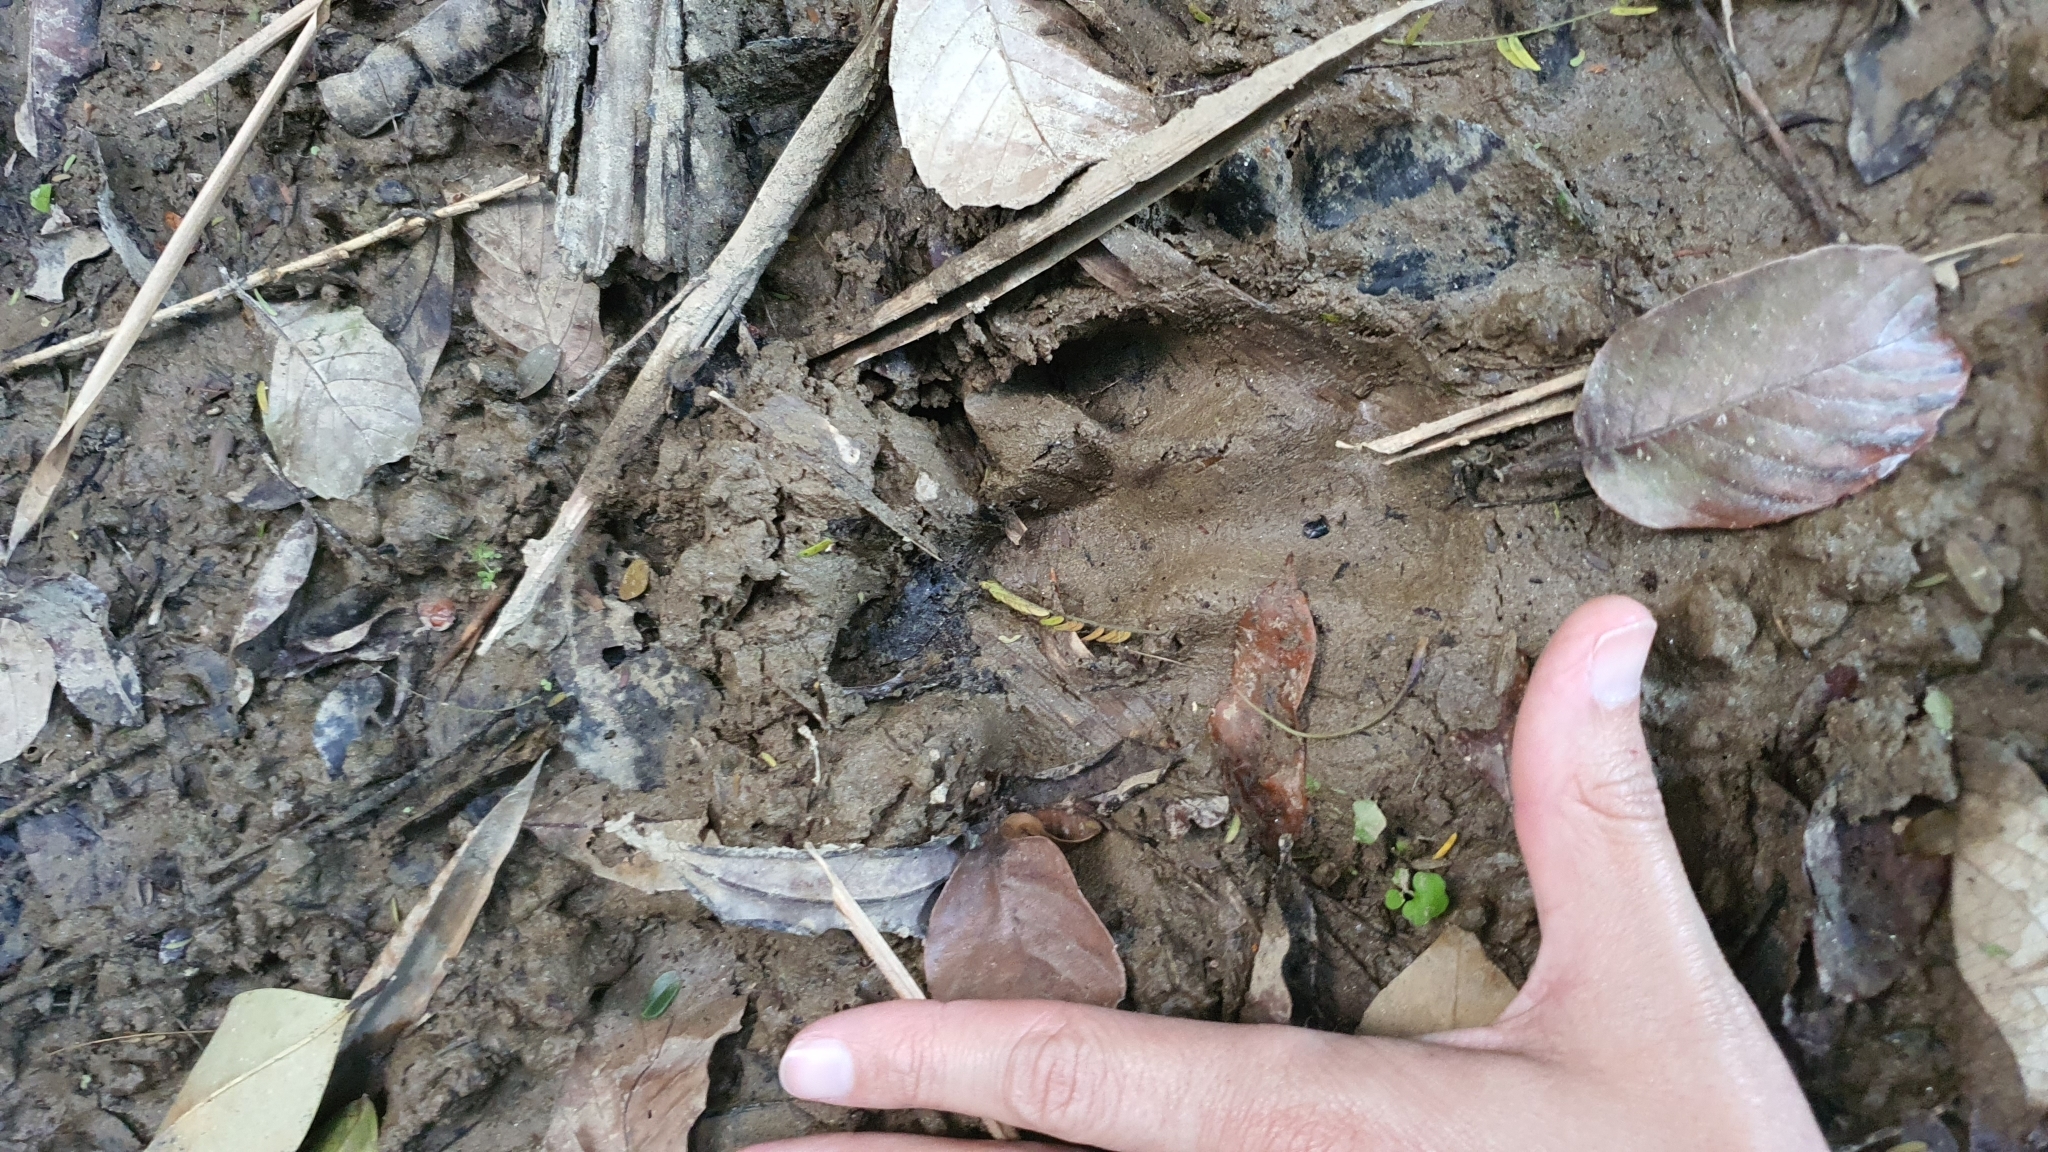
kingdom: Animalia
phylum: Chordata
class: Mammalia
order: Rodentia
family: Caviidae
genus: Hydrochoerus
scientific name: Hydrochoerus hydrochaeris
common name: Capybara
